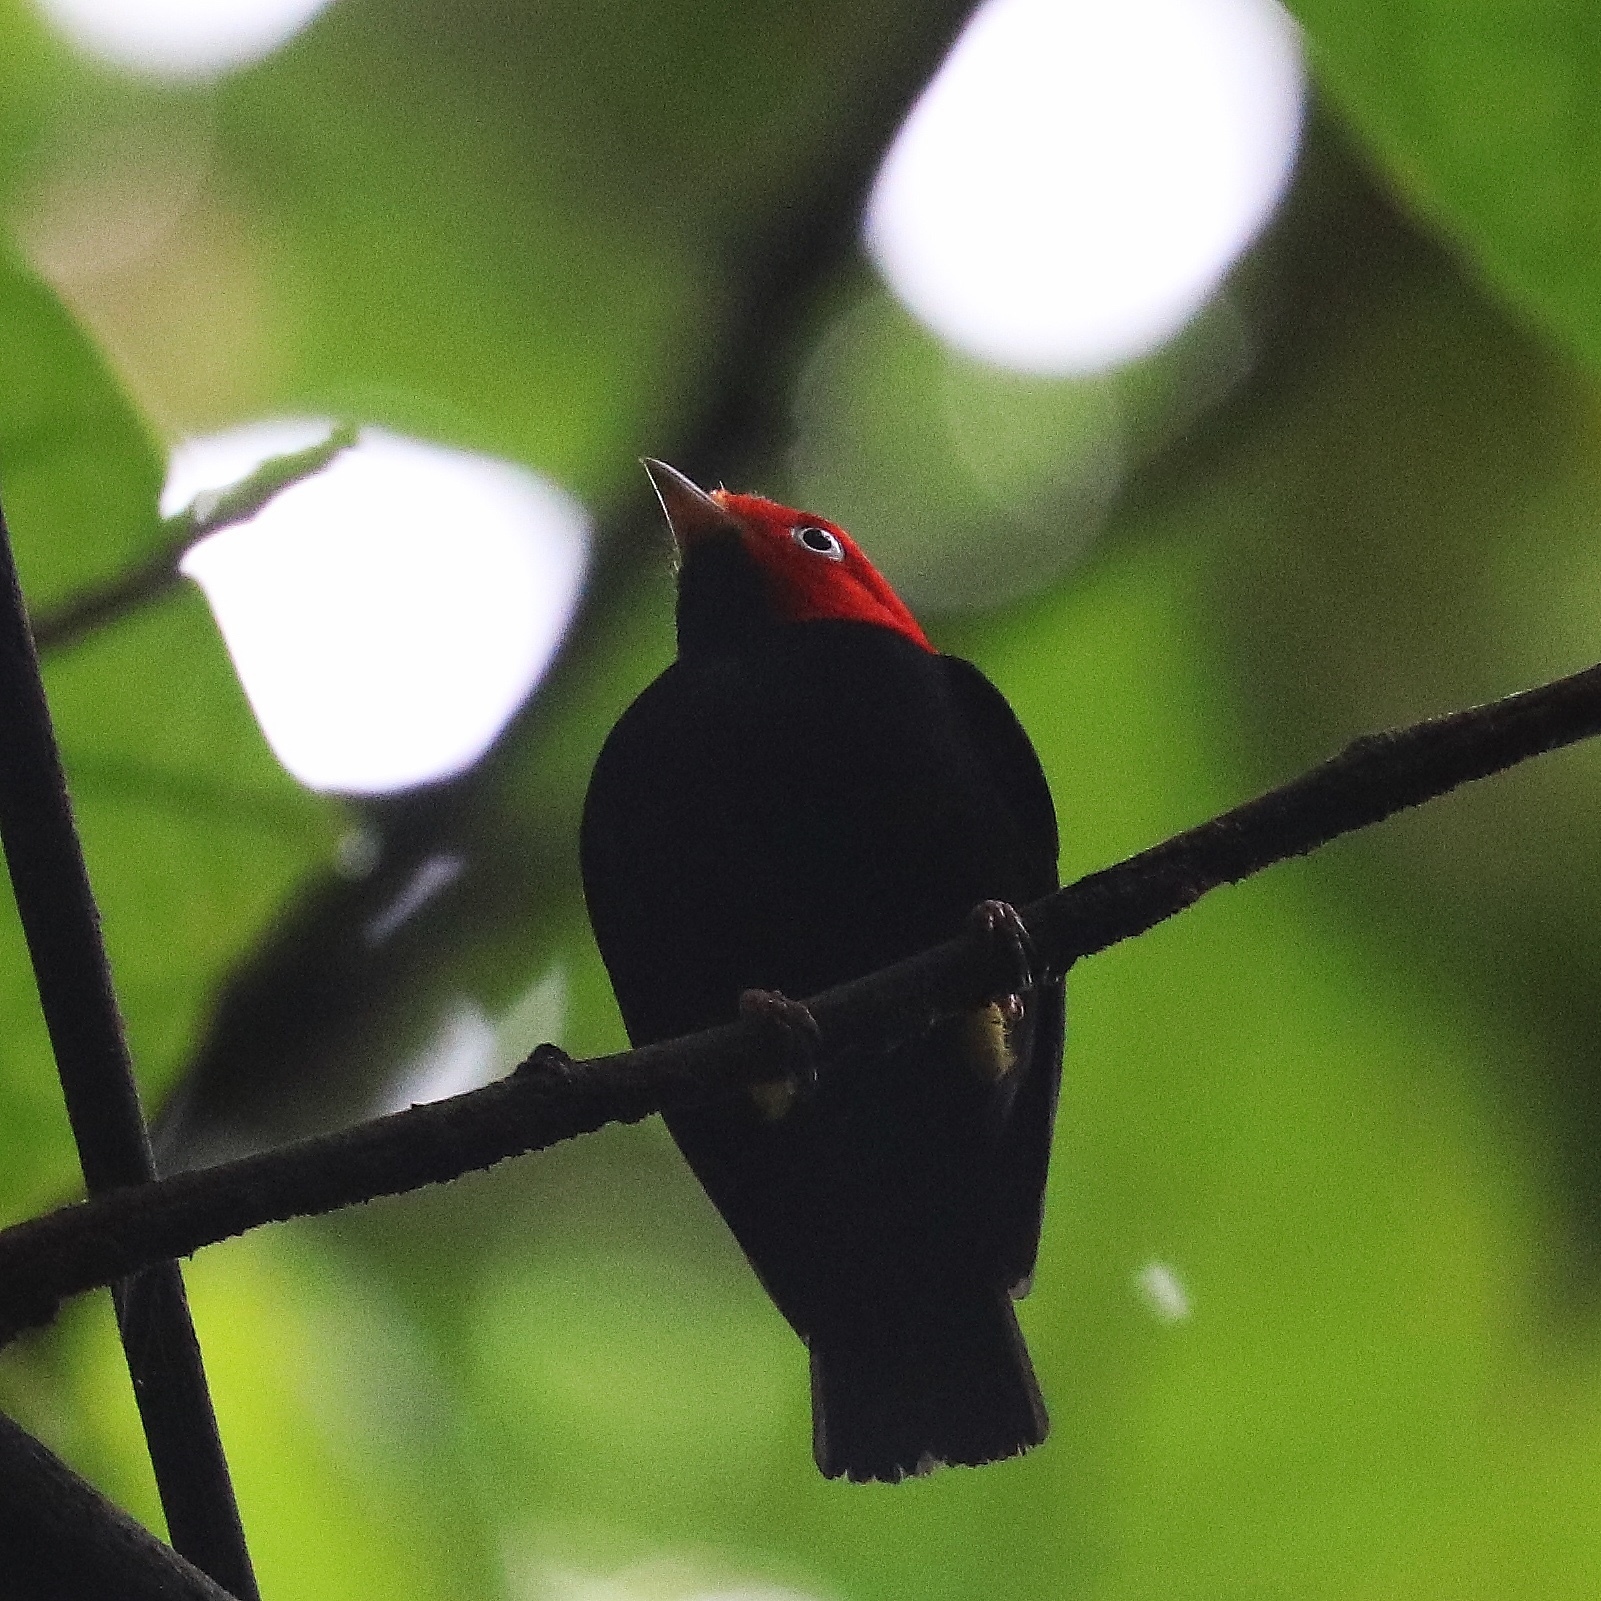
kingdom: Animalia
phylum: Chordata
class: Aves
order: Passeriformes
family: Pipridae
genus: Pipra
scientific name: Pipra mentalis
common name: Red-capped manakin
